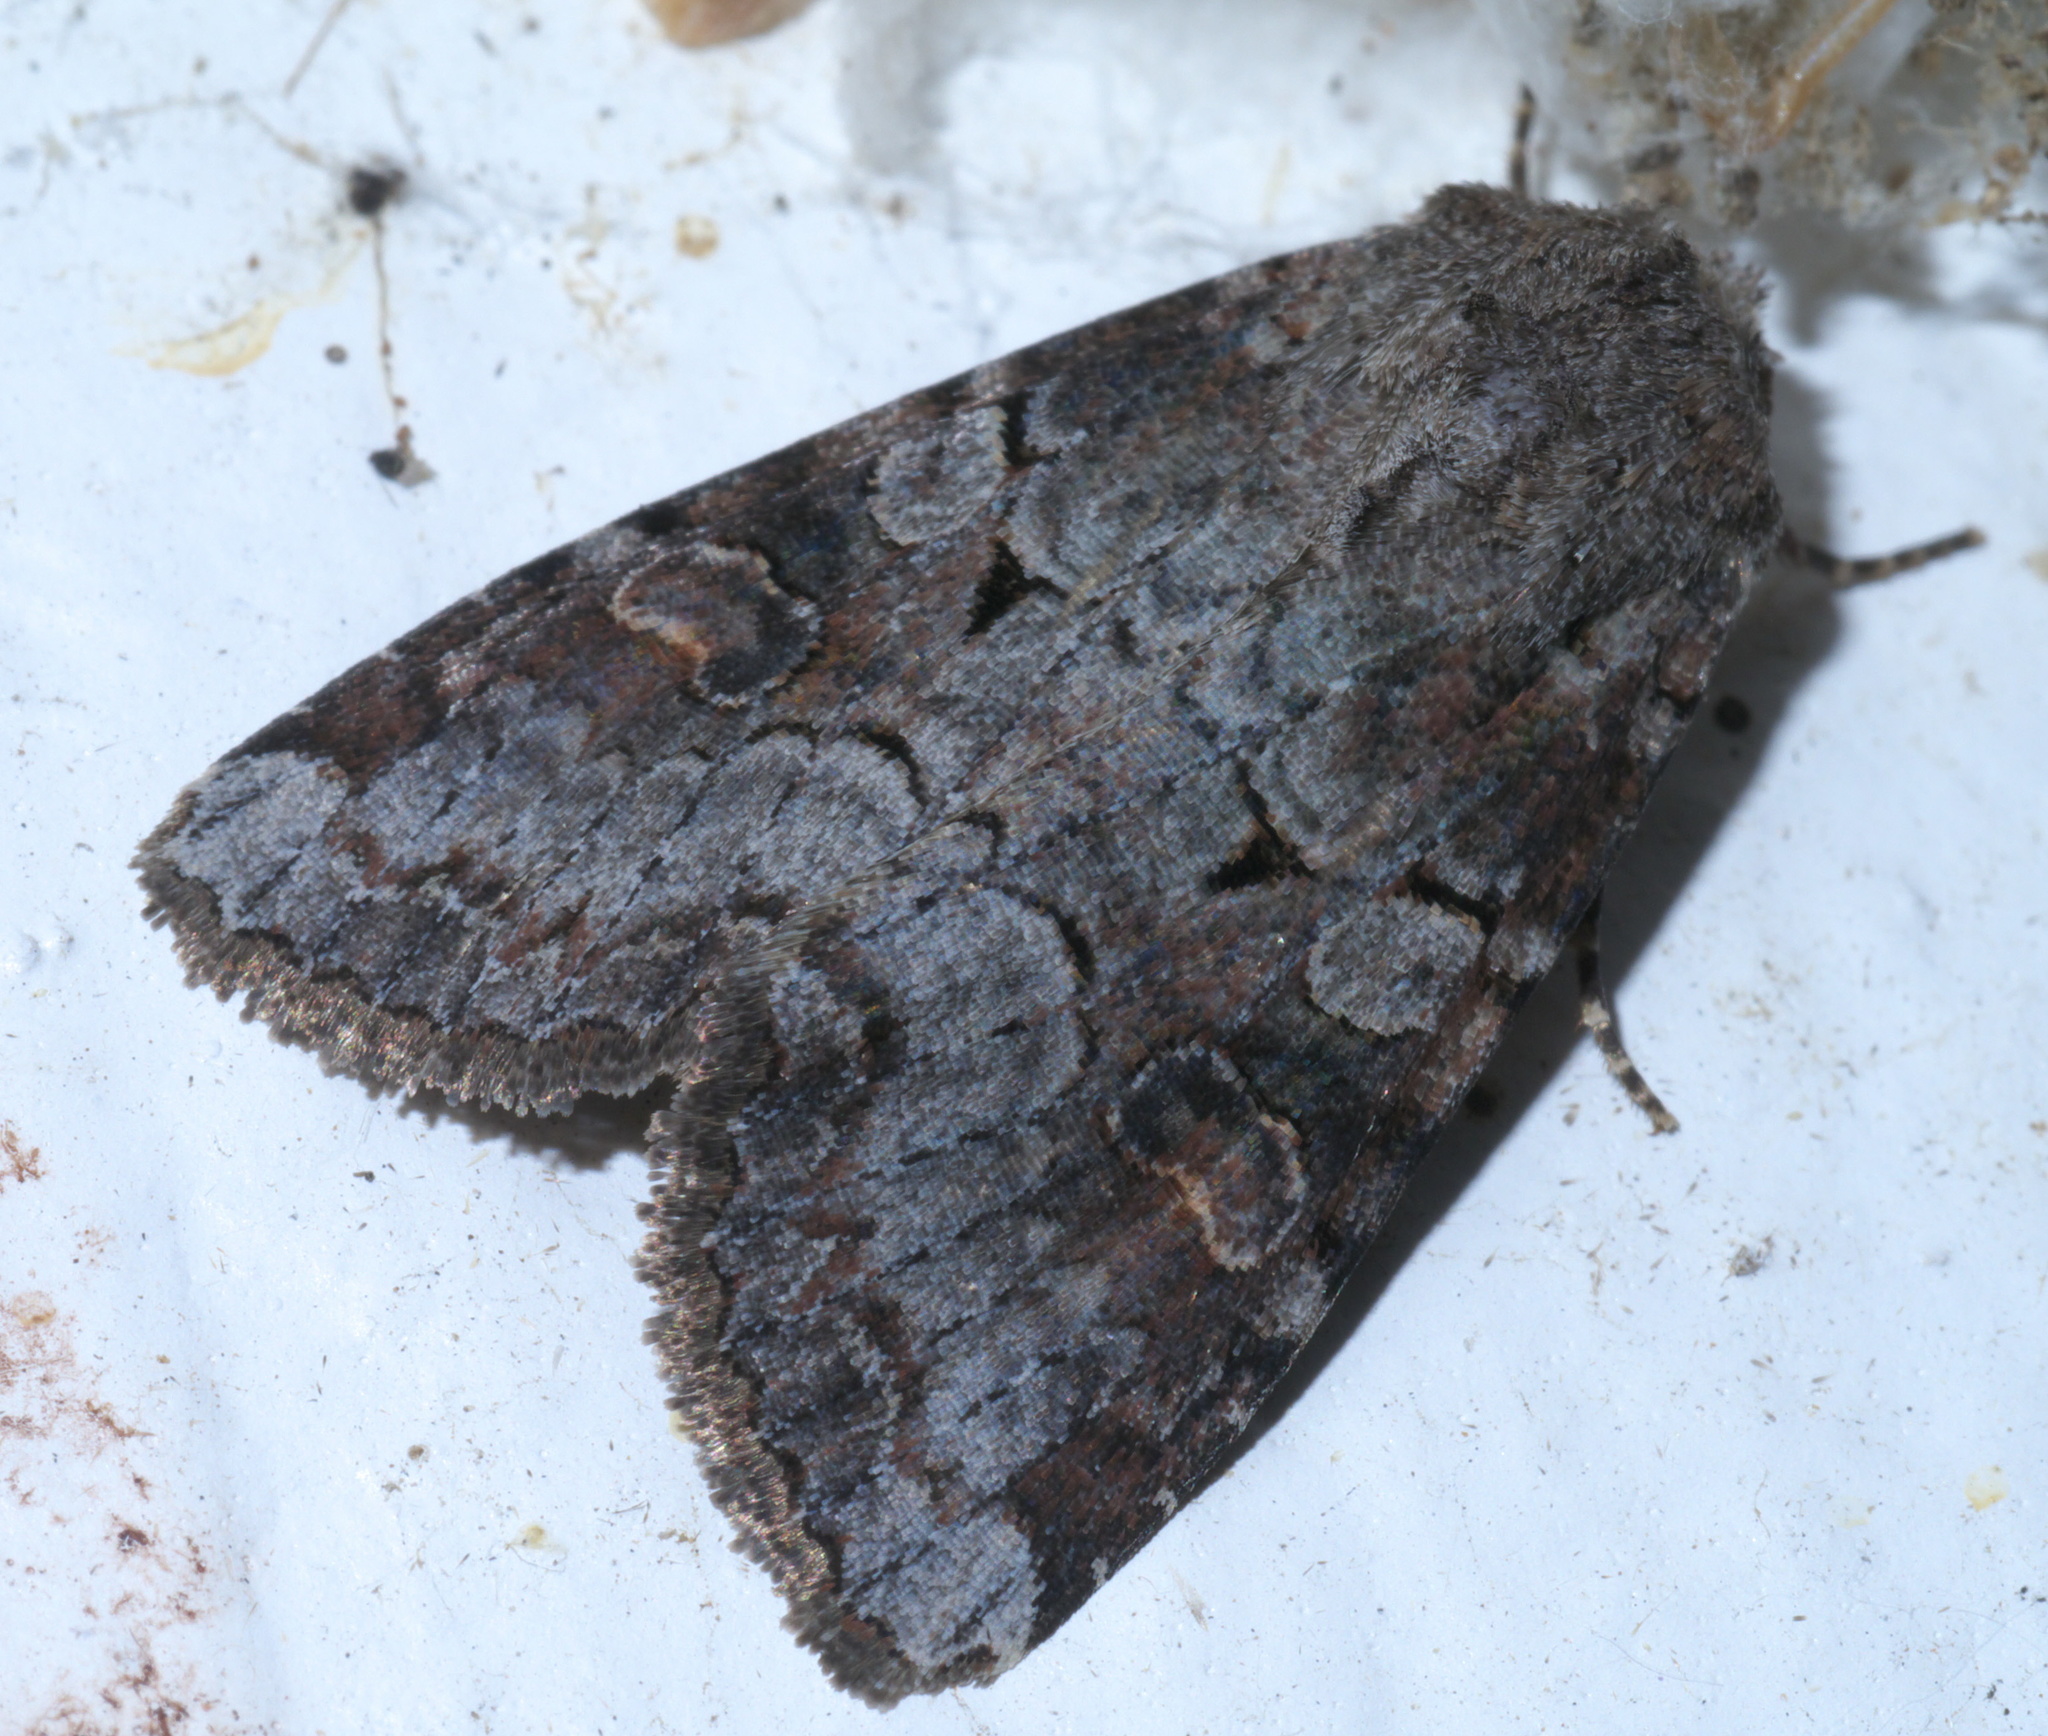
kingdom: Animalia
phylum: Arthropoda
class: Insecta
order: Lepidoptera
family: Noctuidae
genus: Trichordestra
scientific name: Trichordestra legitima
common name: Striped garden caterpillar
